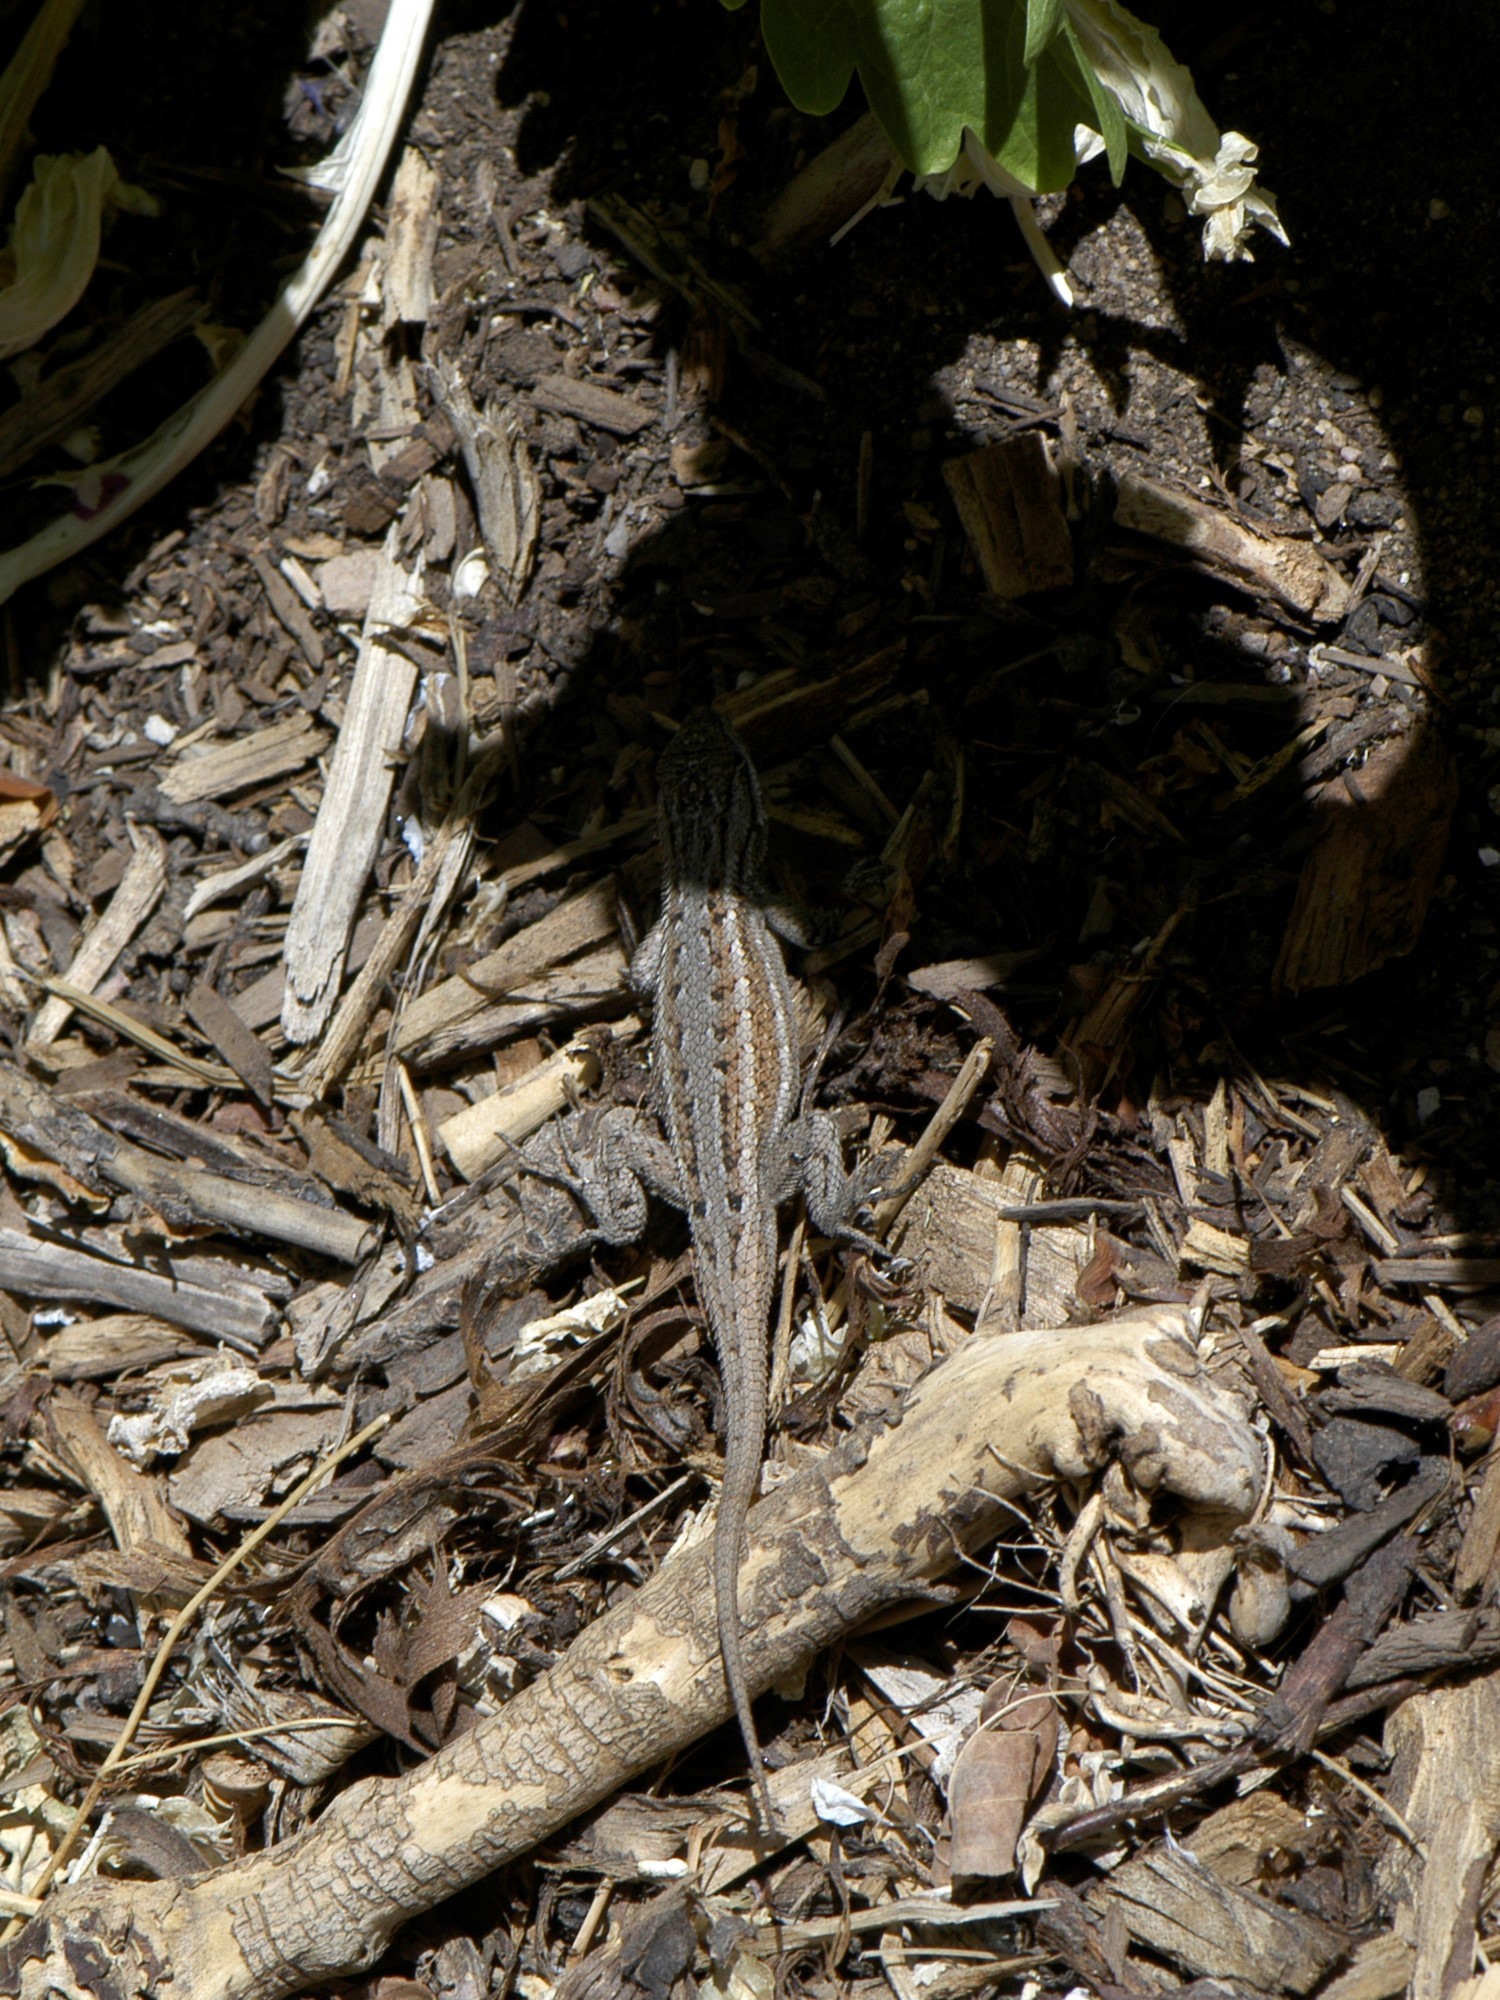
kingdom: Animalia
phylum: Chordata
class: Squamata
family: Phrynosomatidae
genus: Sceloporus
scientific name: Sceloporus cowlesi
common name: White sands prairie lizard
